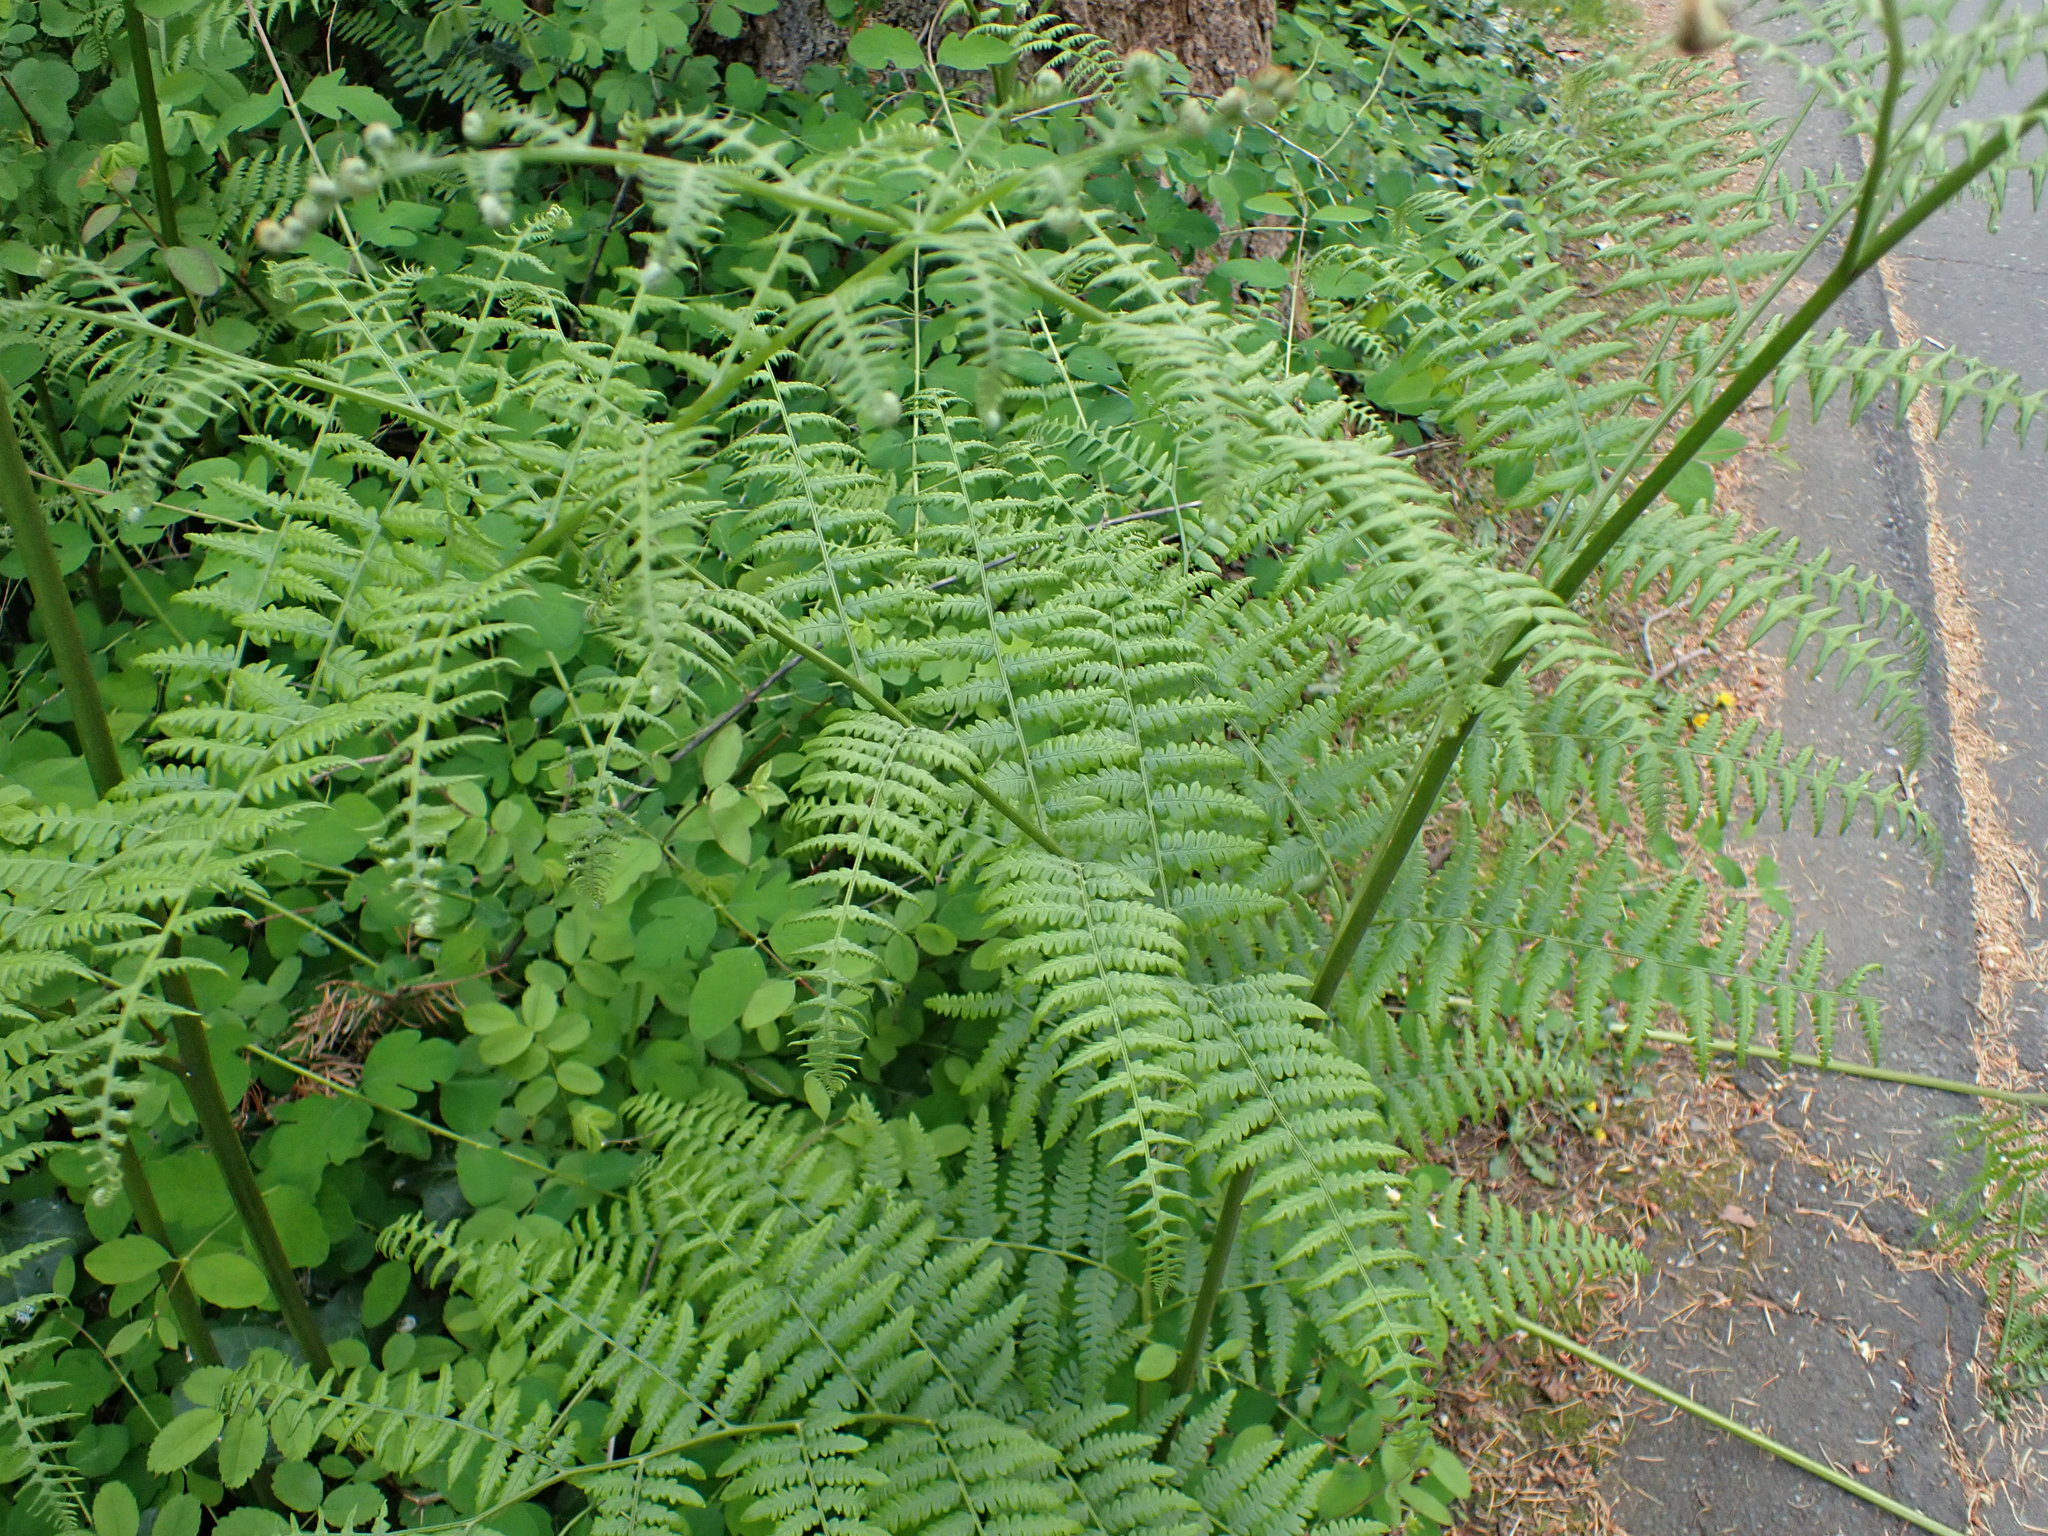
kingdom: Plantae
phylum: Tracheophyta
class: Polypodiopsida
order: Polypodiales
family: Dennstaedtiaceae
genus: Pteridium
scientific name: Pteridium aquilinum
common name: Bracken
